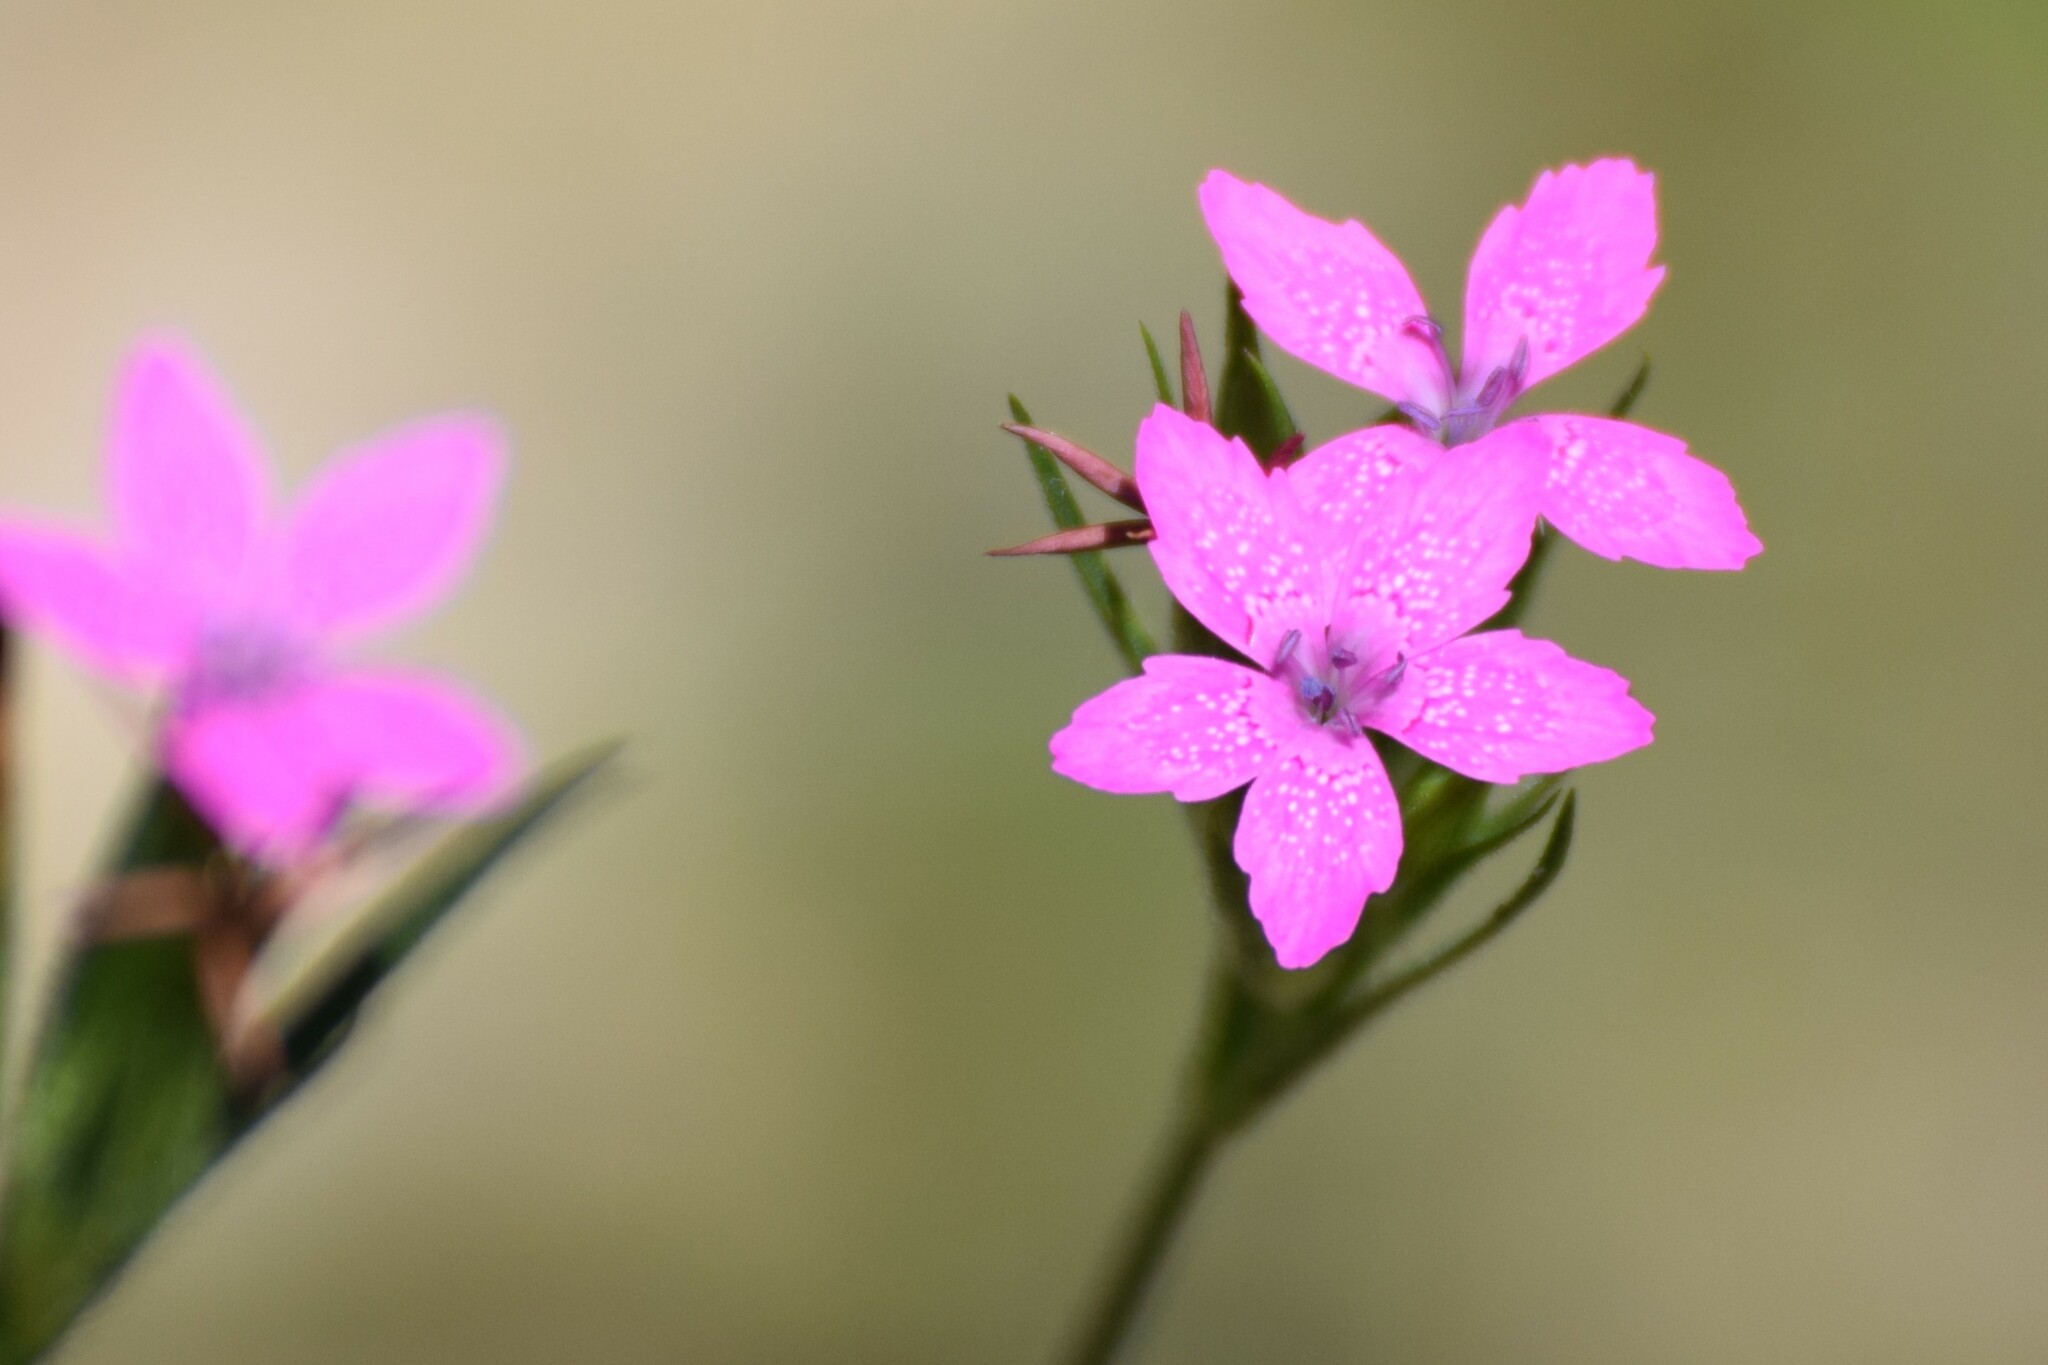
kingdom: Plantae
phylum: Tracheophyta
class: Magnoliopsida
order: Caryophyllales
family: Caryophyllaceae
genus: Dianthus
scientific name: Dianthus armeria
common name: Deptford pink
